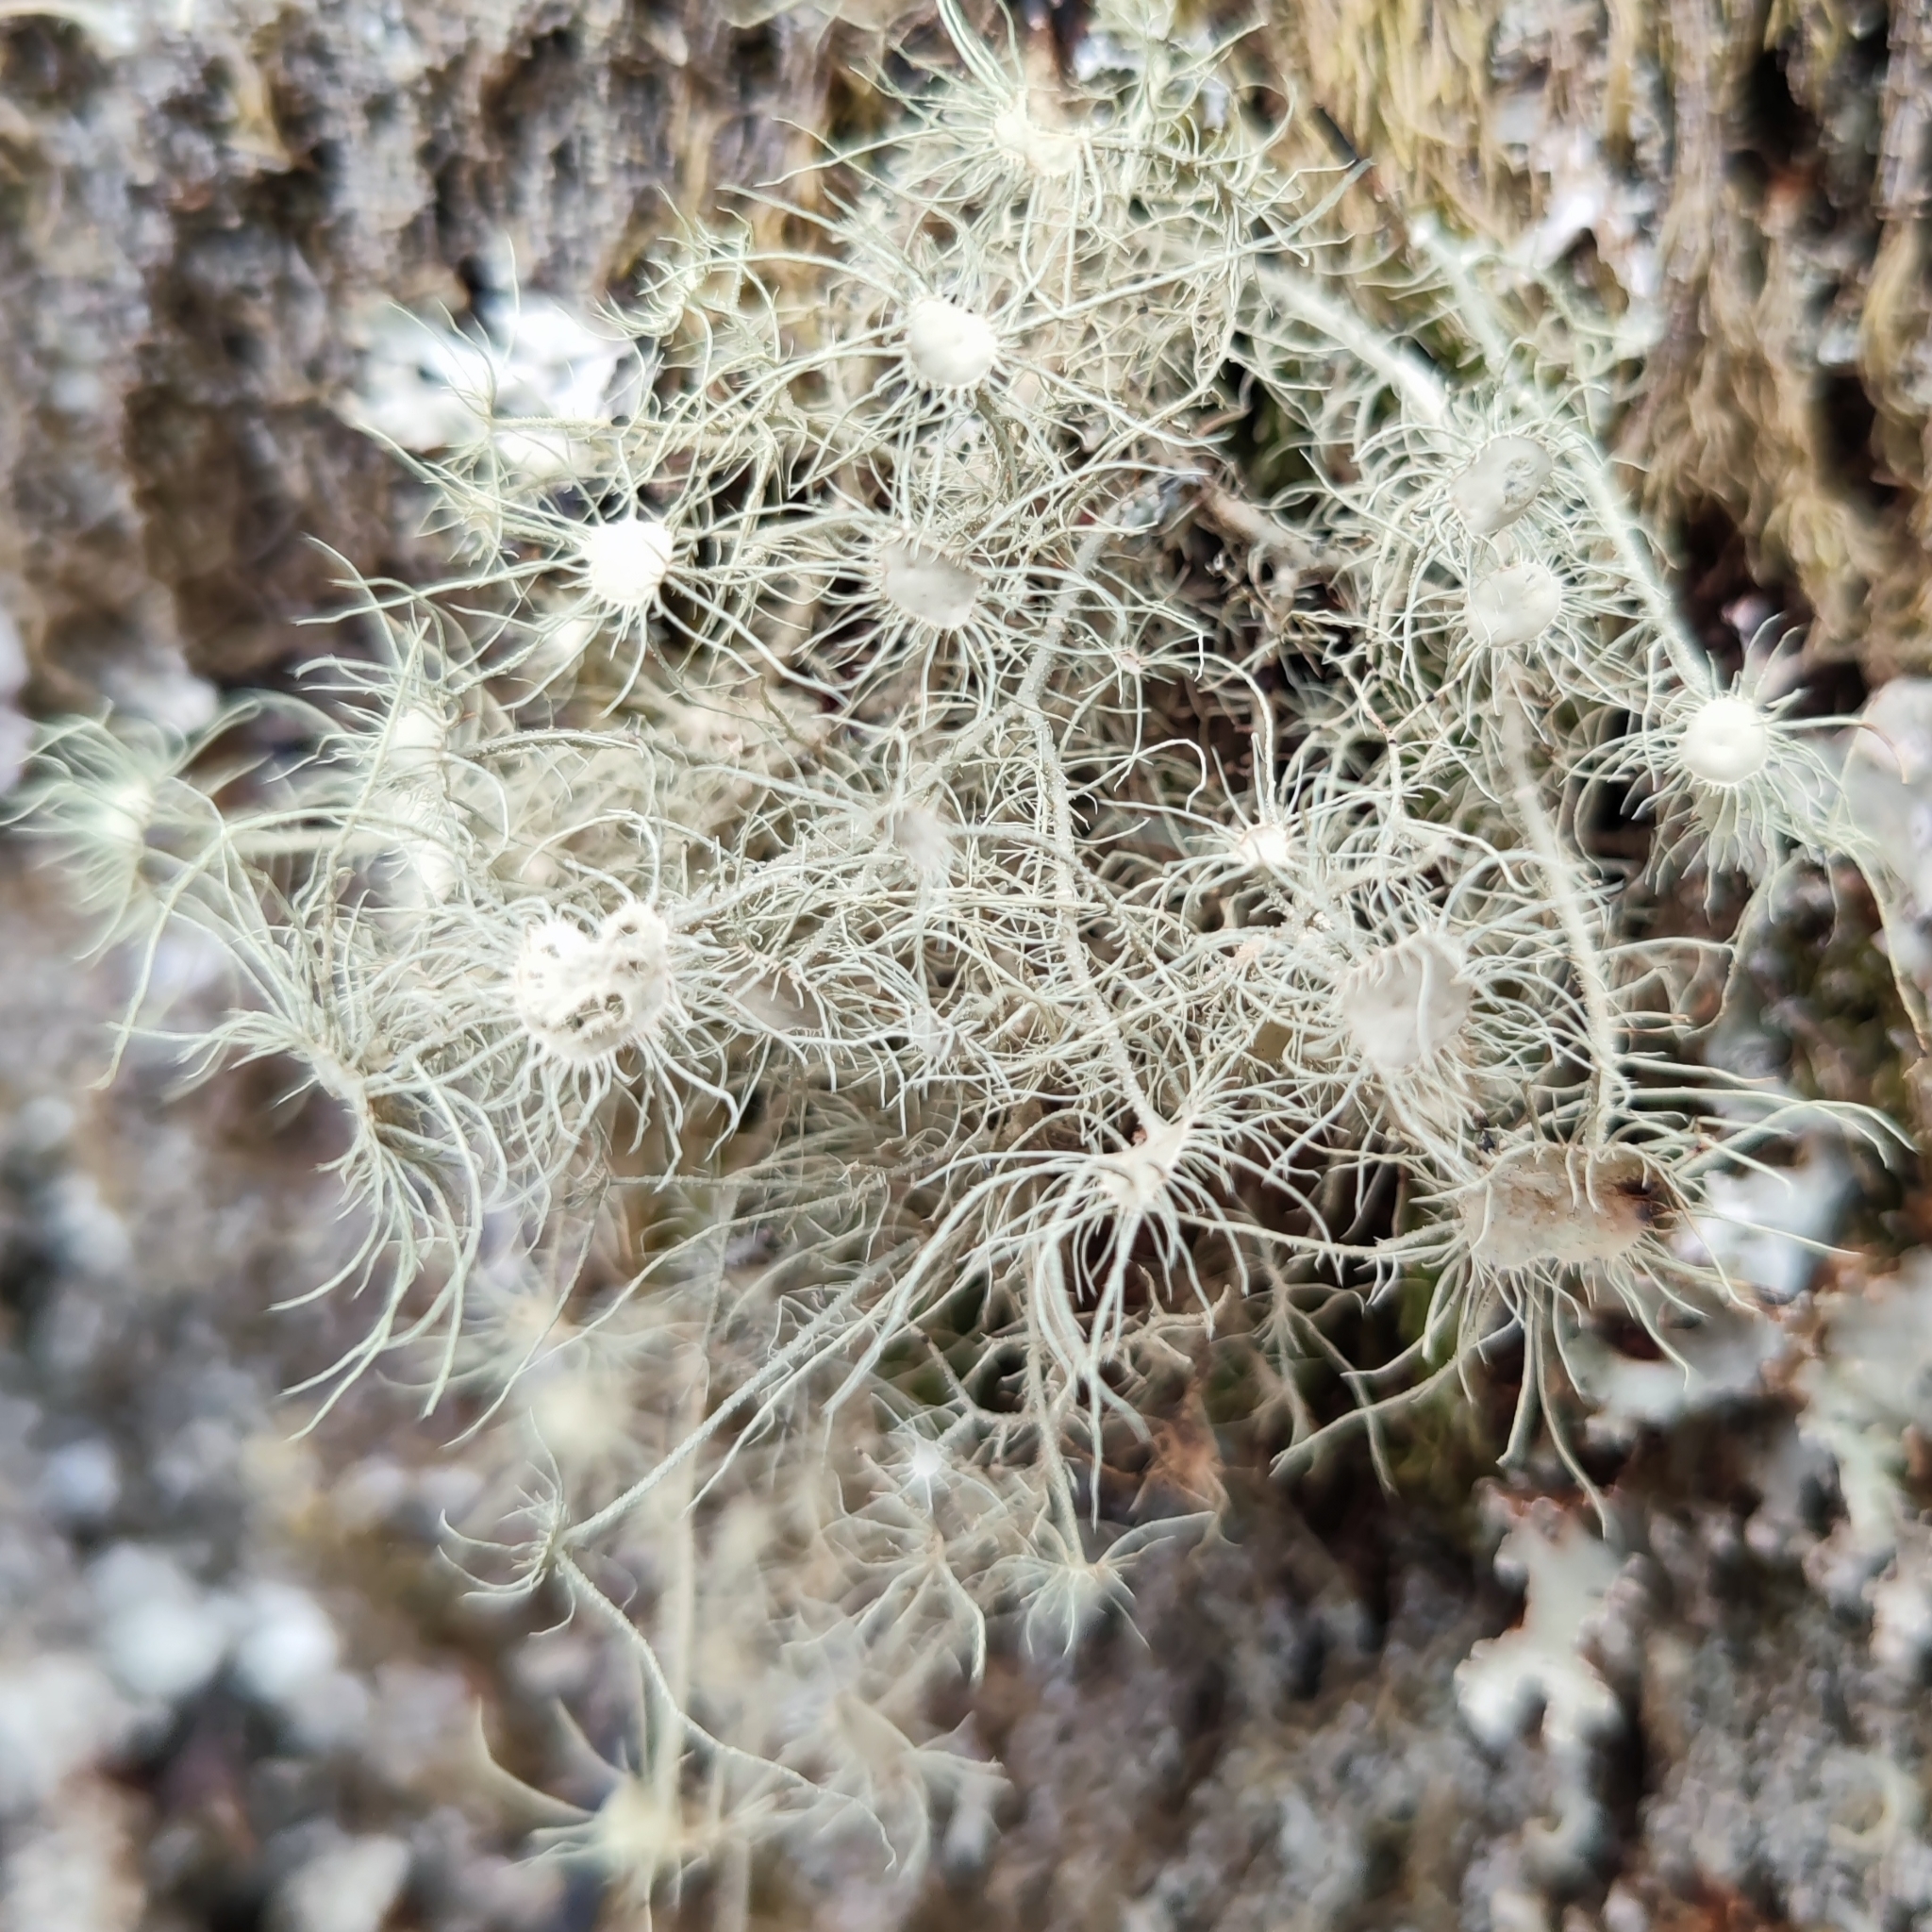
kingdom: Fungi
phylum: Ascomycota
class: Lecanoromycetes
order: Lecanorales
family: Parmeliaceae
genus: Usnea
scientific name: Usnea florida
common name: Witches' whiskers lichen
